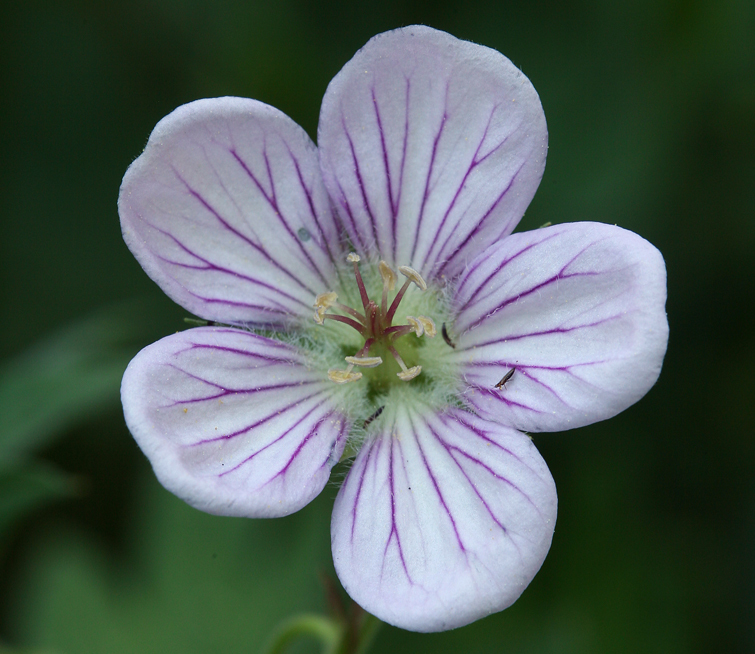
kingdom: Plantae
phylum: Tracheophyta
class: Magnoliopsida
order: Geraniales
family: Geraniaceae
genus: Geranium
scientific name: Geranium richardsonii
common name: Richardson's crane's-bill
